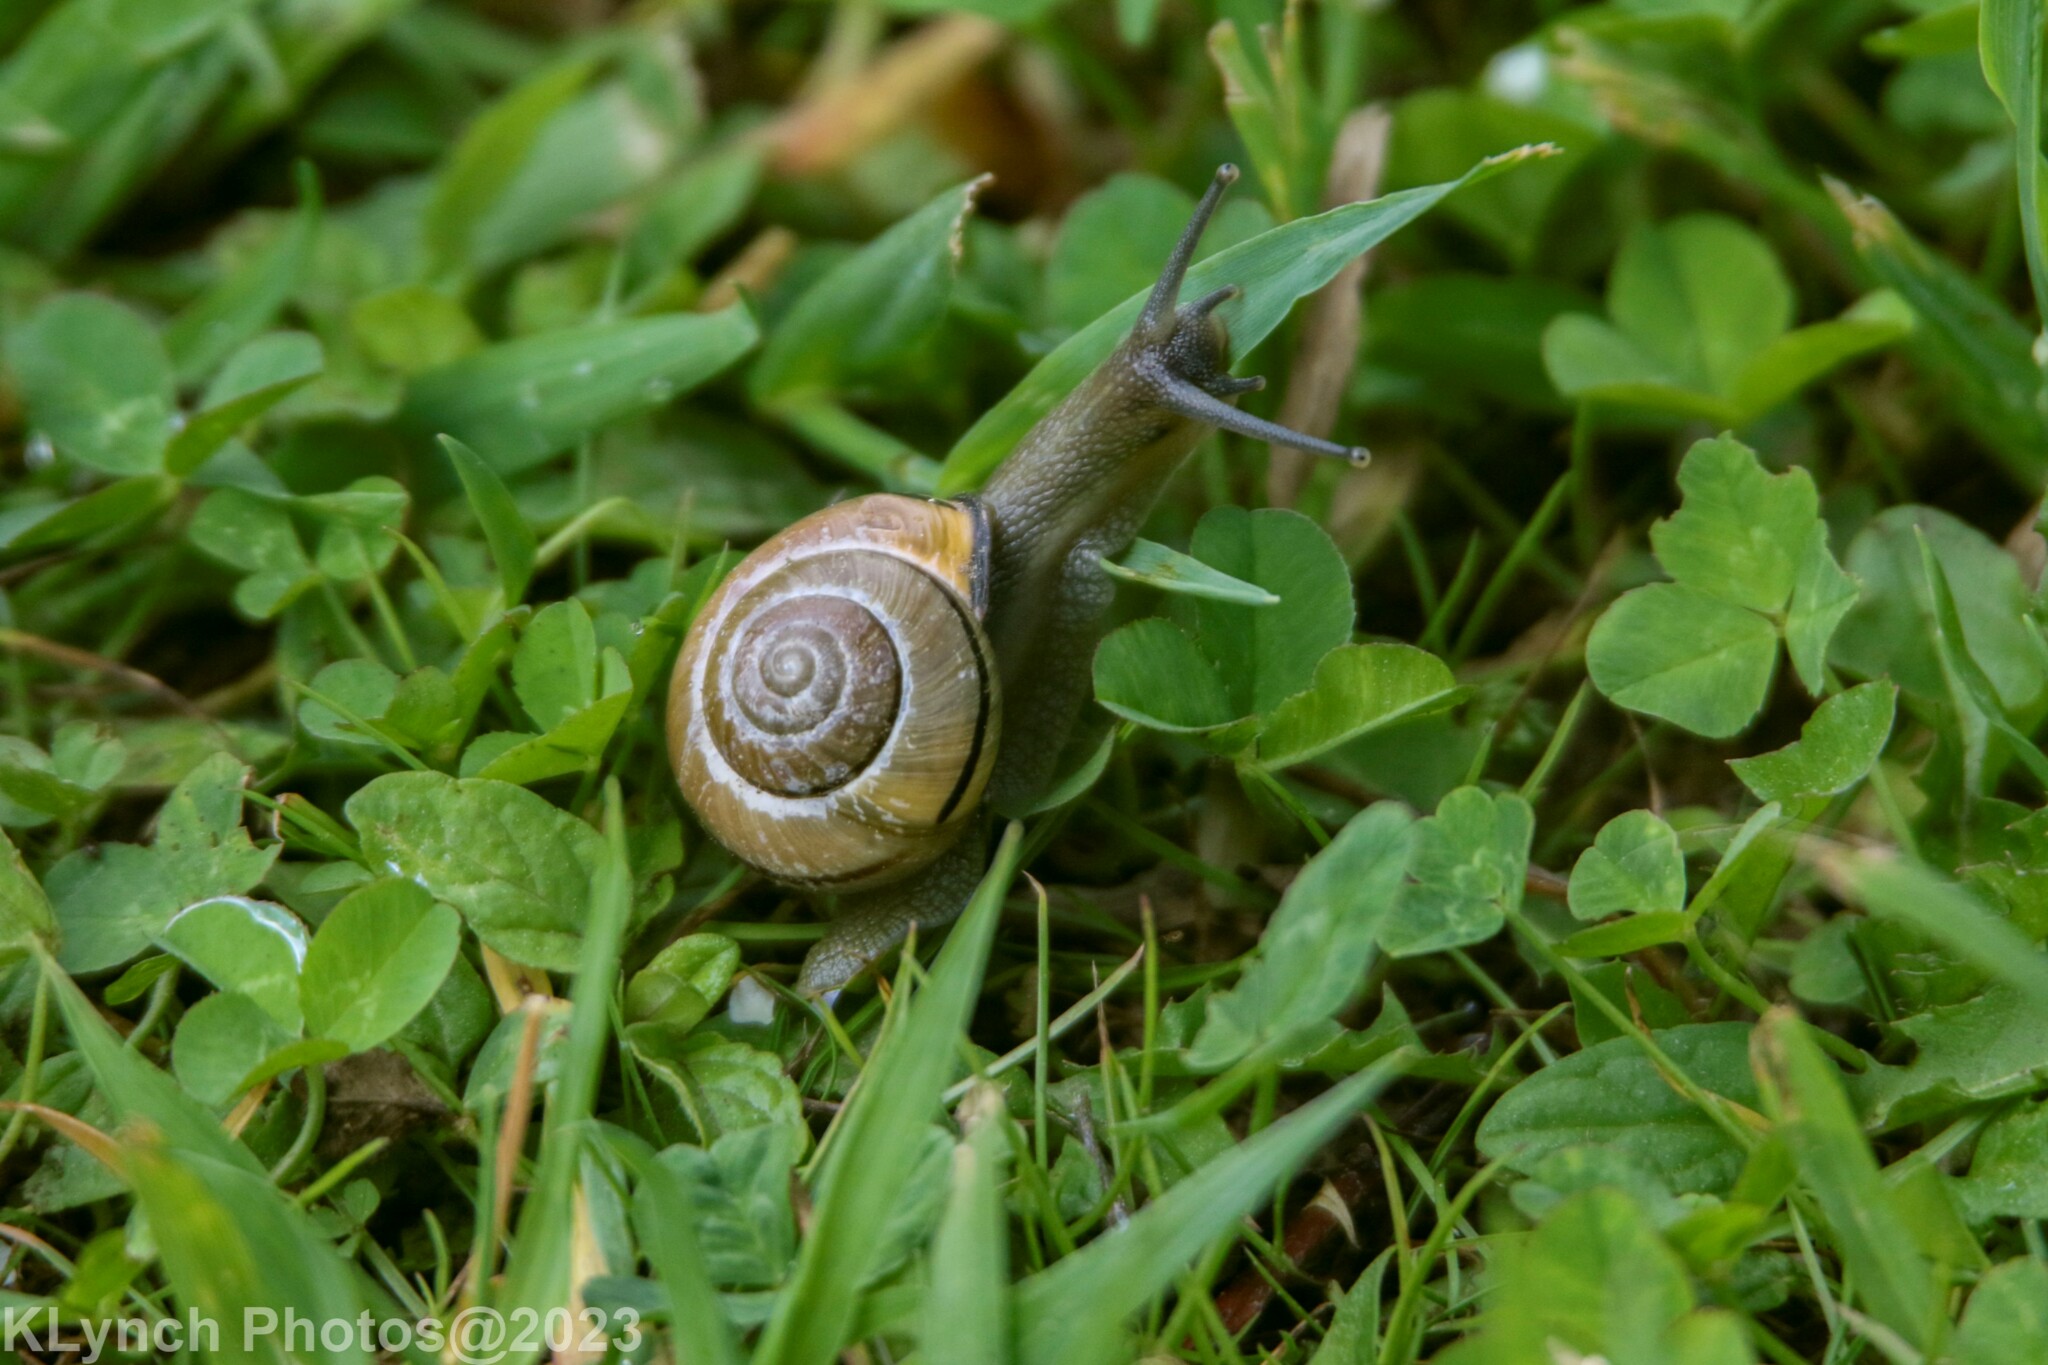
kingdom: Animalia
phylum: Mollusca
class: Gastropoda
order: Stylommatophora
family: Helicidae
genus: Cepaea
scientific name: Cepaea nemoralis
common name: Grovesnail
